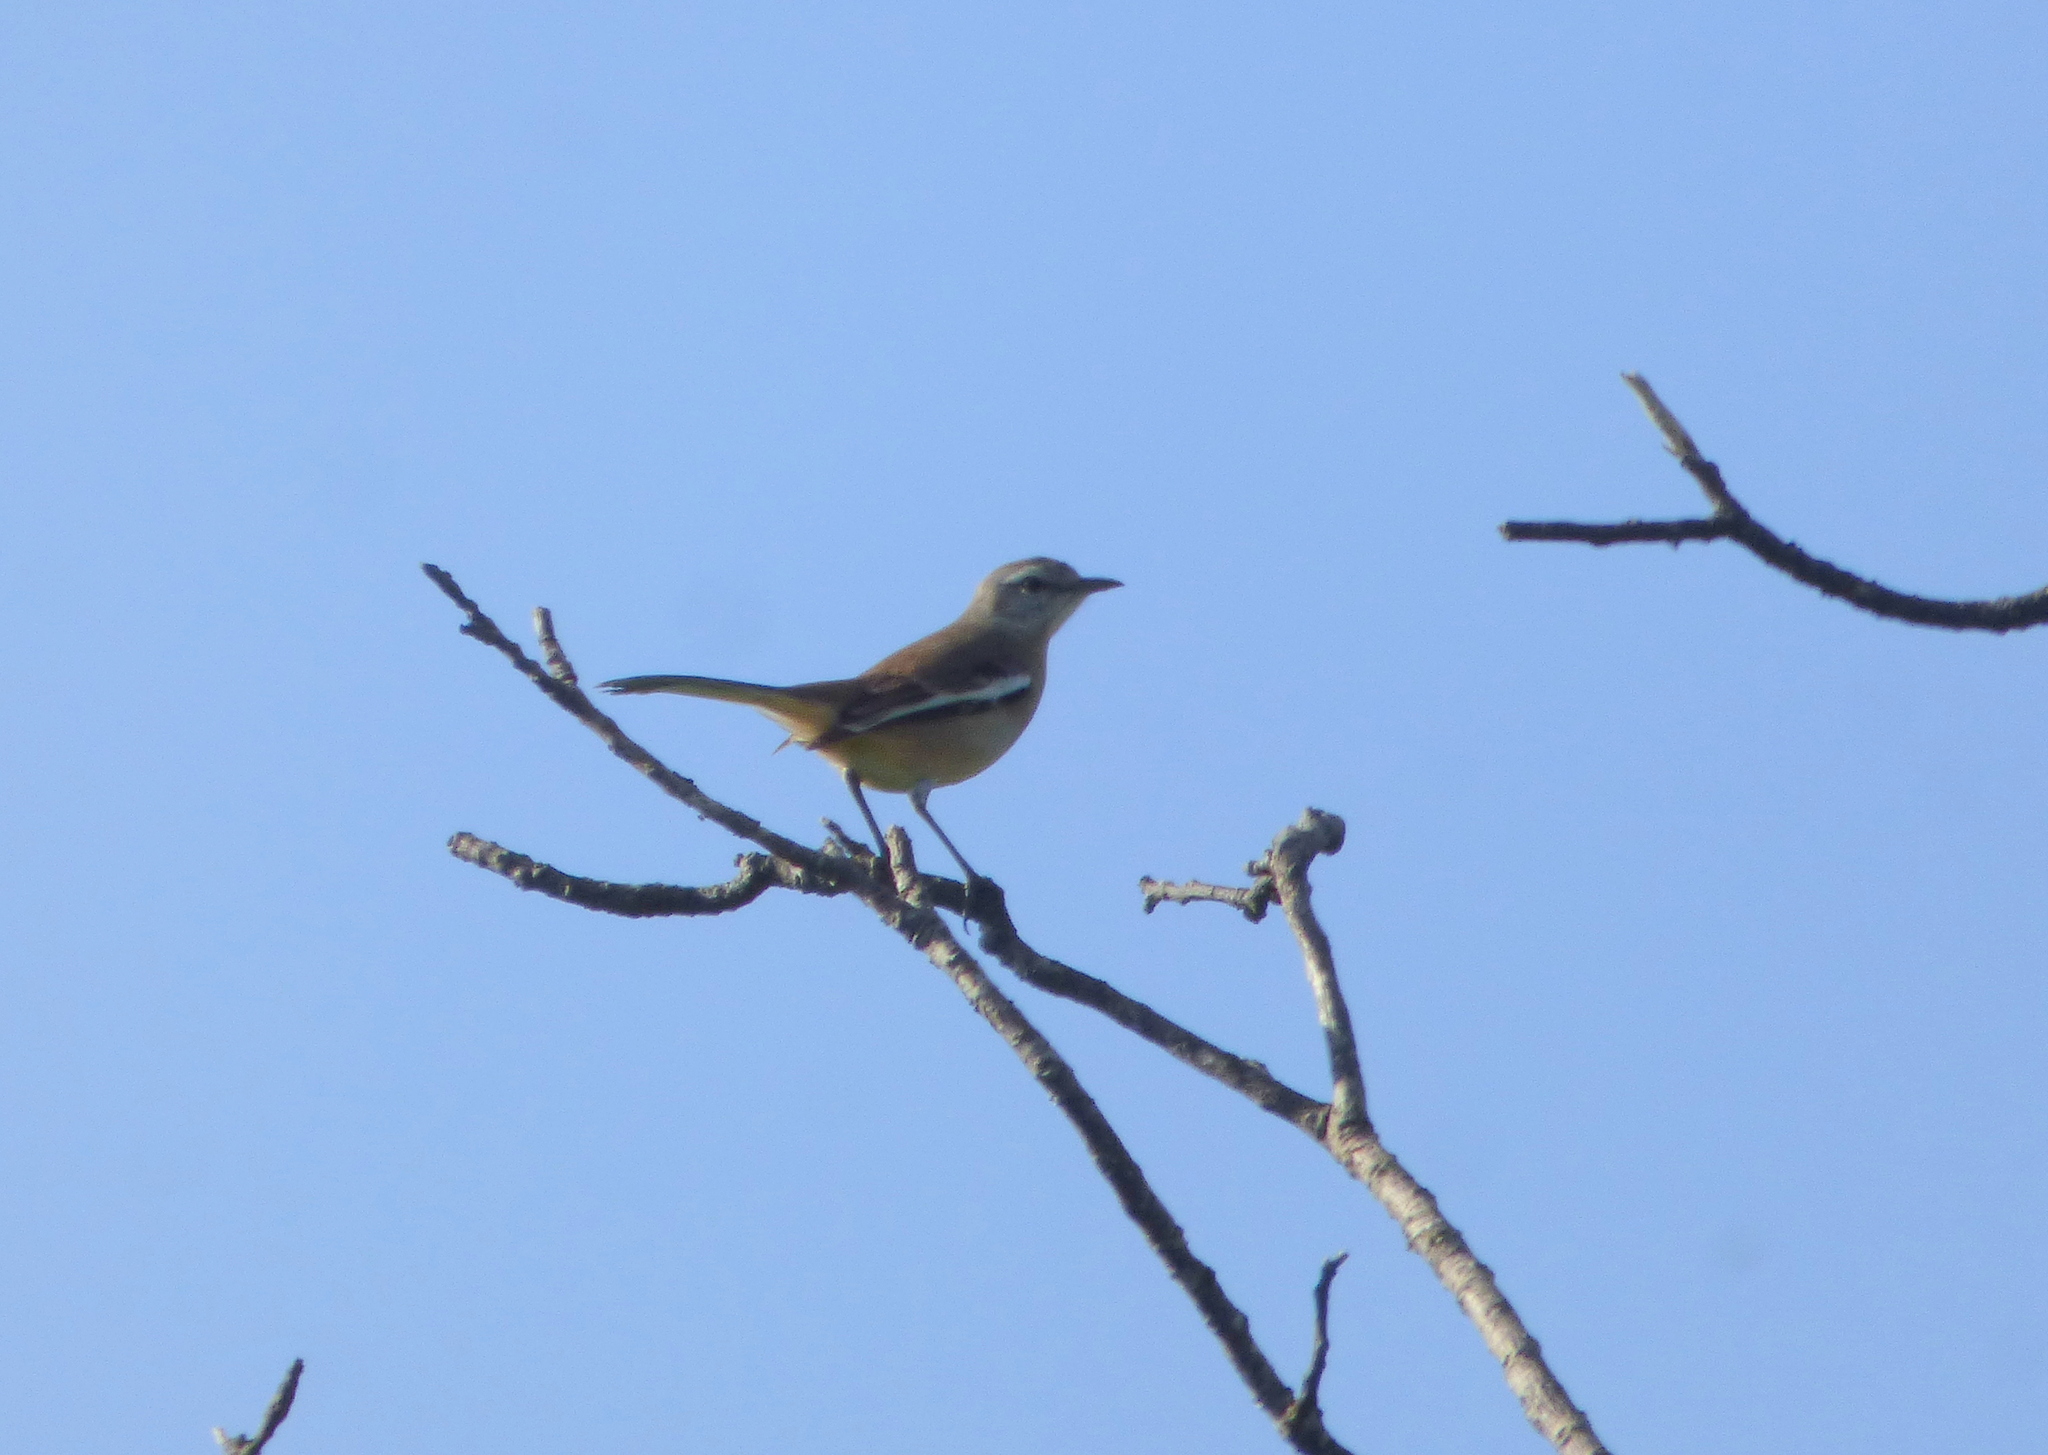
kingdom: Animalia
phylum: Chordata
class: Aves
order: Passeriformes
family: Mimidae
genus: Mimus
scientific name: Mimus triurus
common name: White-banded mockingbird
